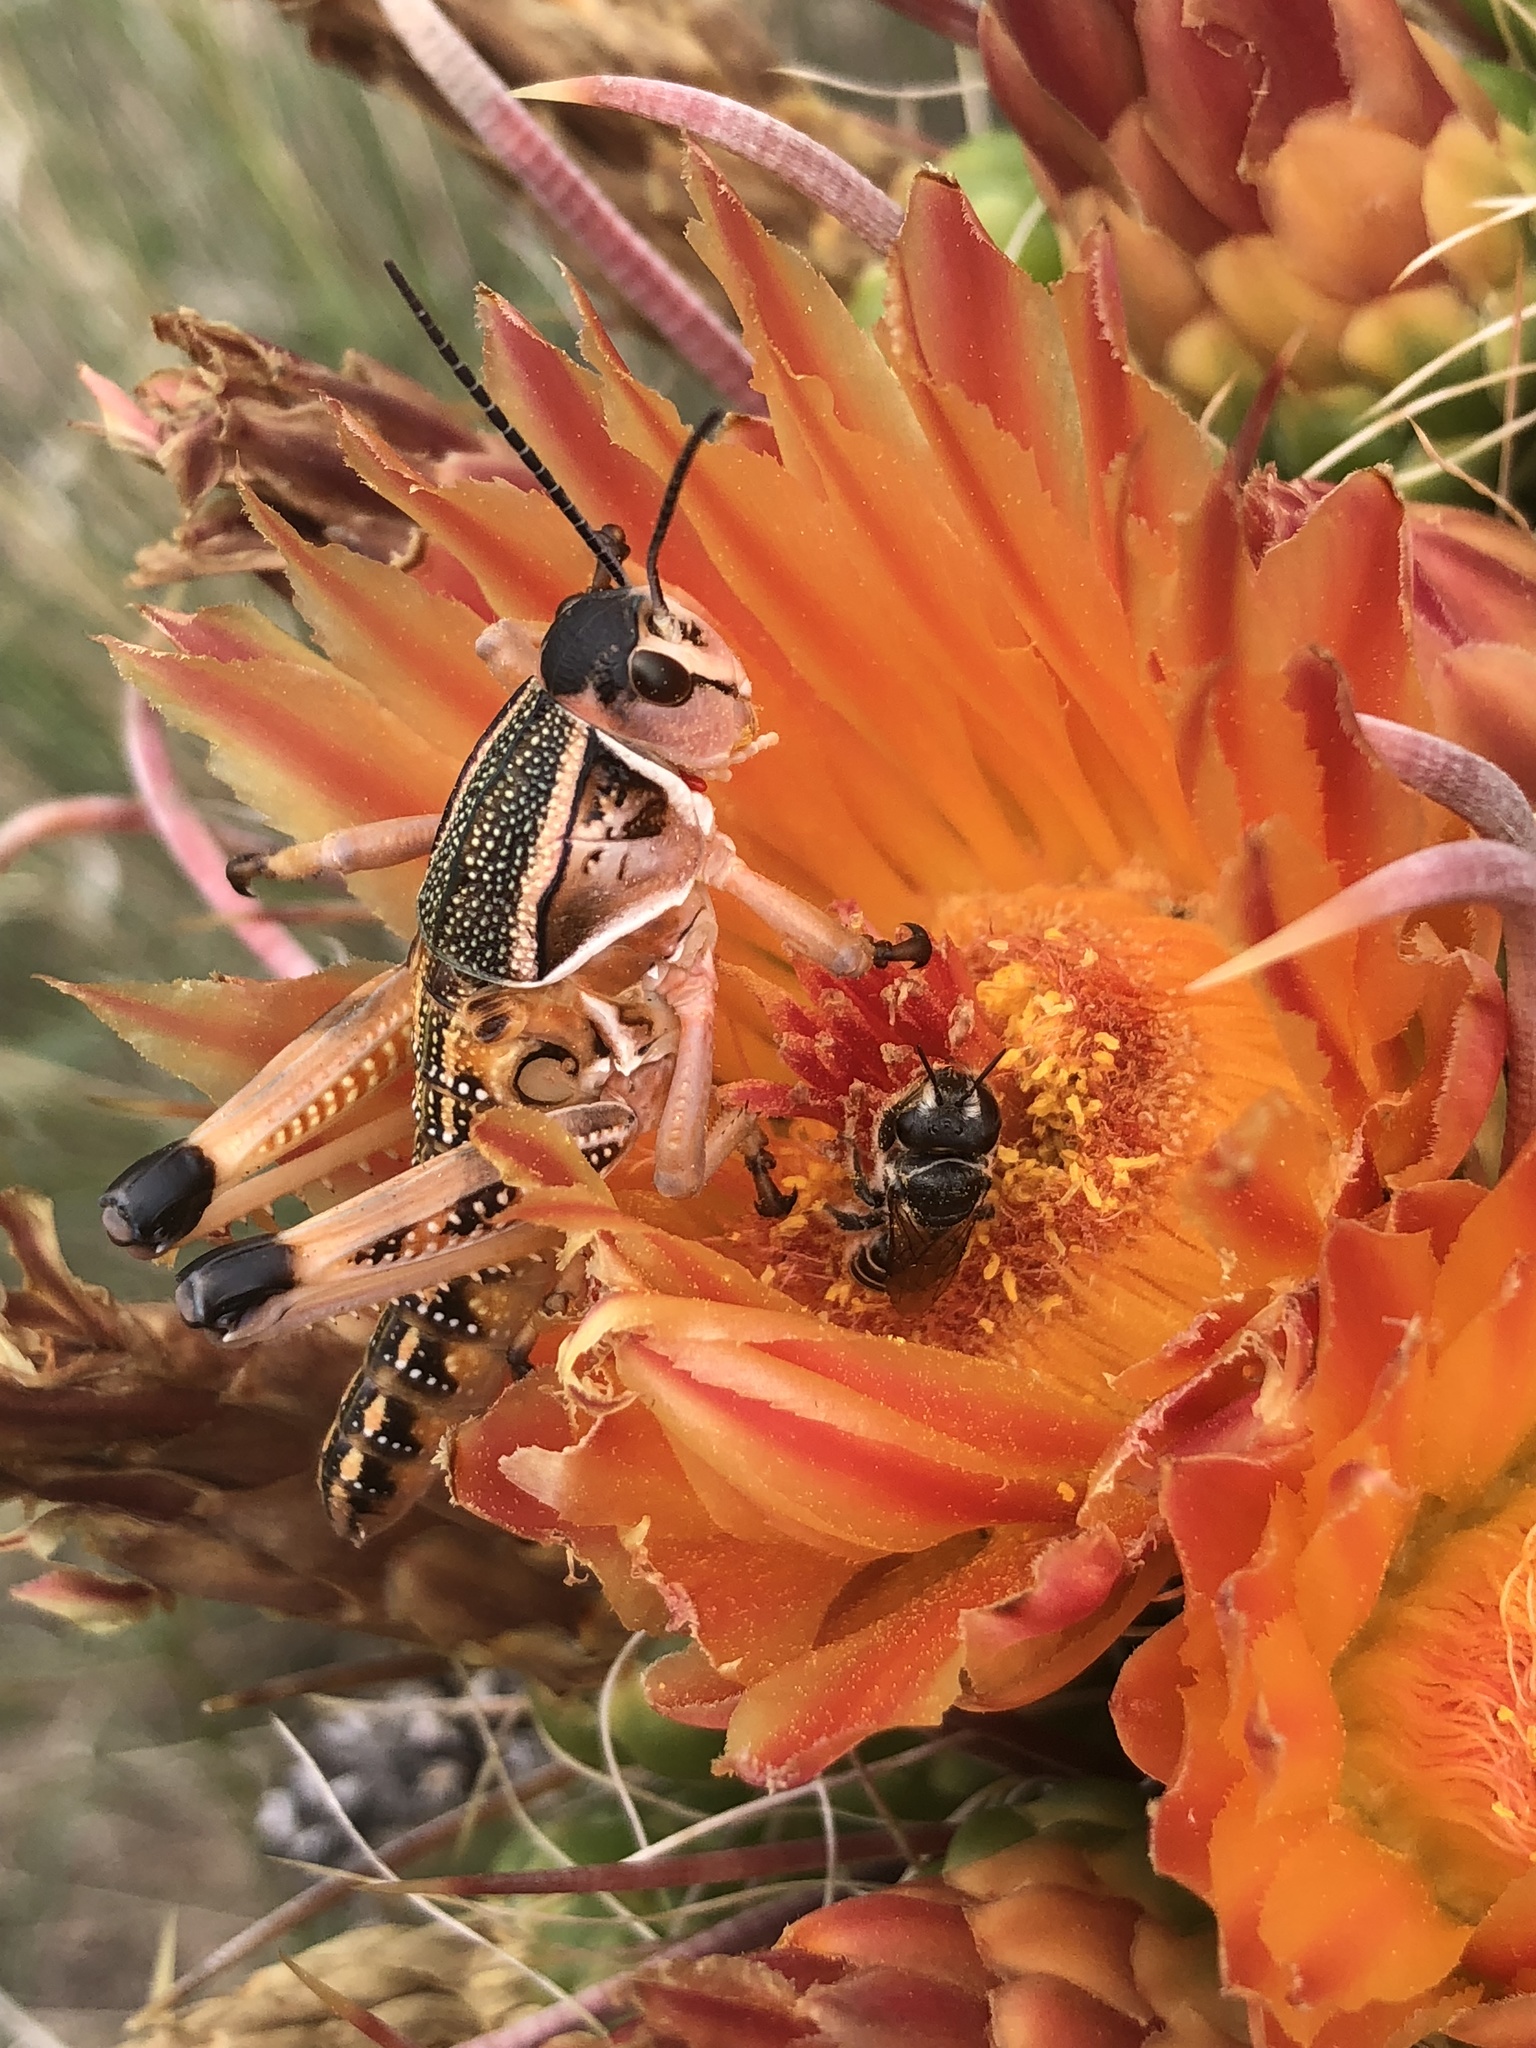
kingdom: Animalia
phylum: Arthropoda
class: Insecta
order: Orthoptera
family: Romaleidae
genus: Brachystola
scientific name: Brachystola magna
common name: Plains lubber grasshopper
